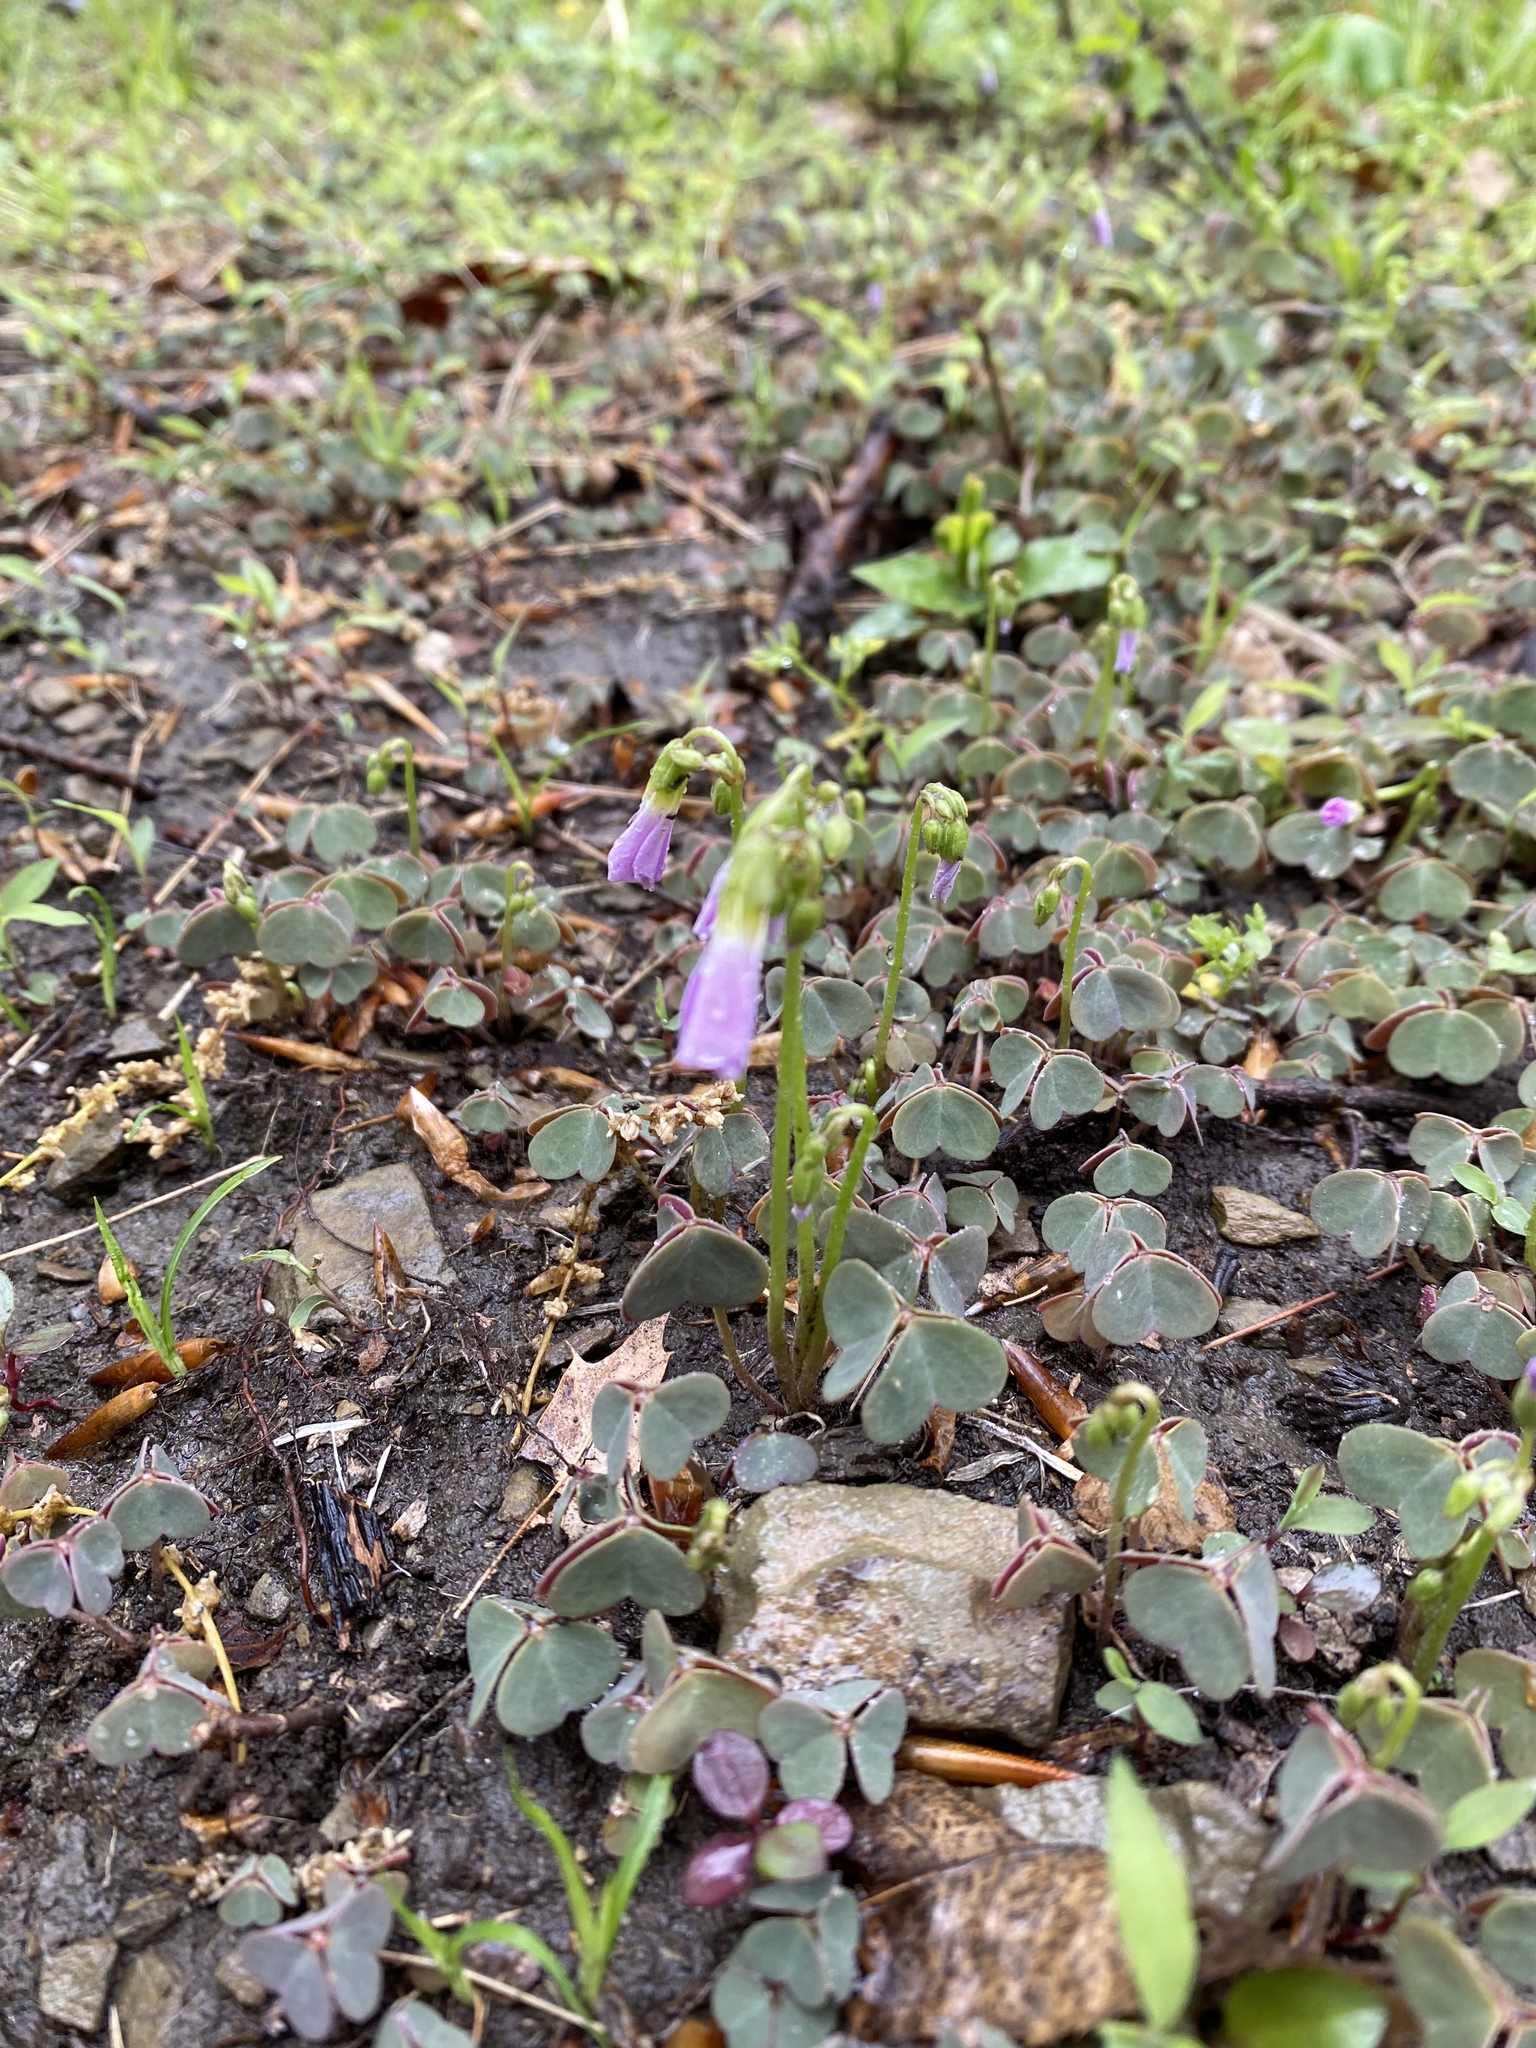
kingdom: Plantae
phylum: Tracheophyta
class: Magnoliopsida
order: Oxalidales
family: Oxalidaceae
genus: Oxalis
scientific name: Oxalis violacea
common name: Violet wood-sorrel
